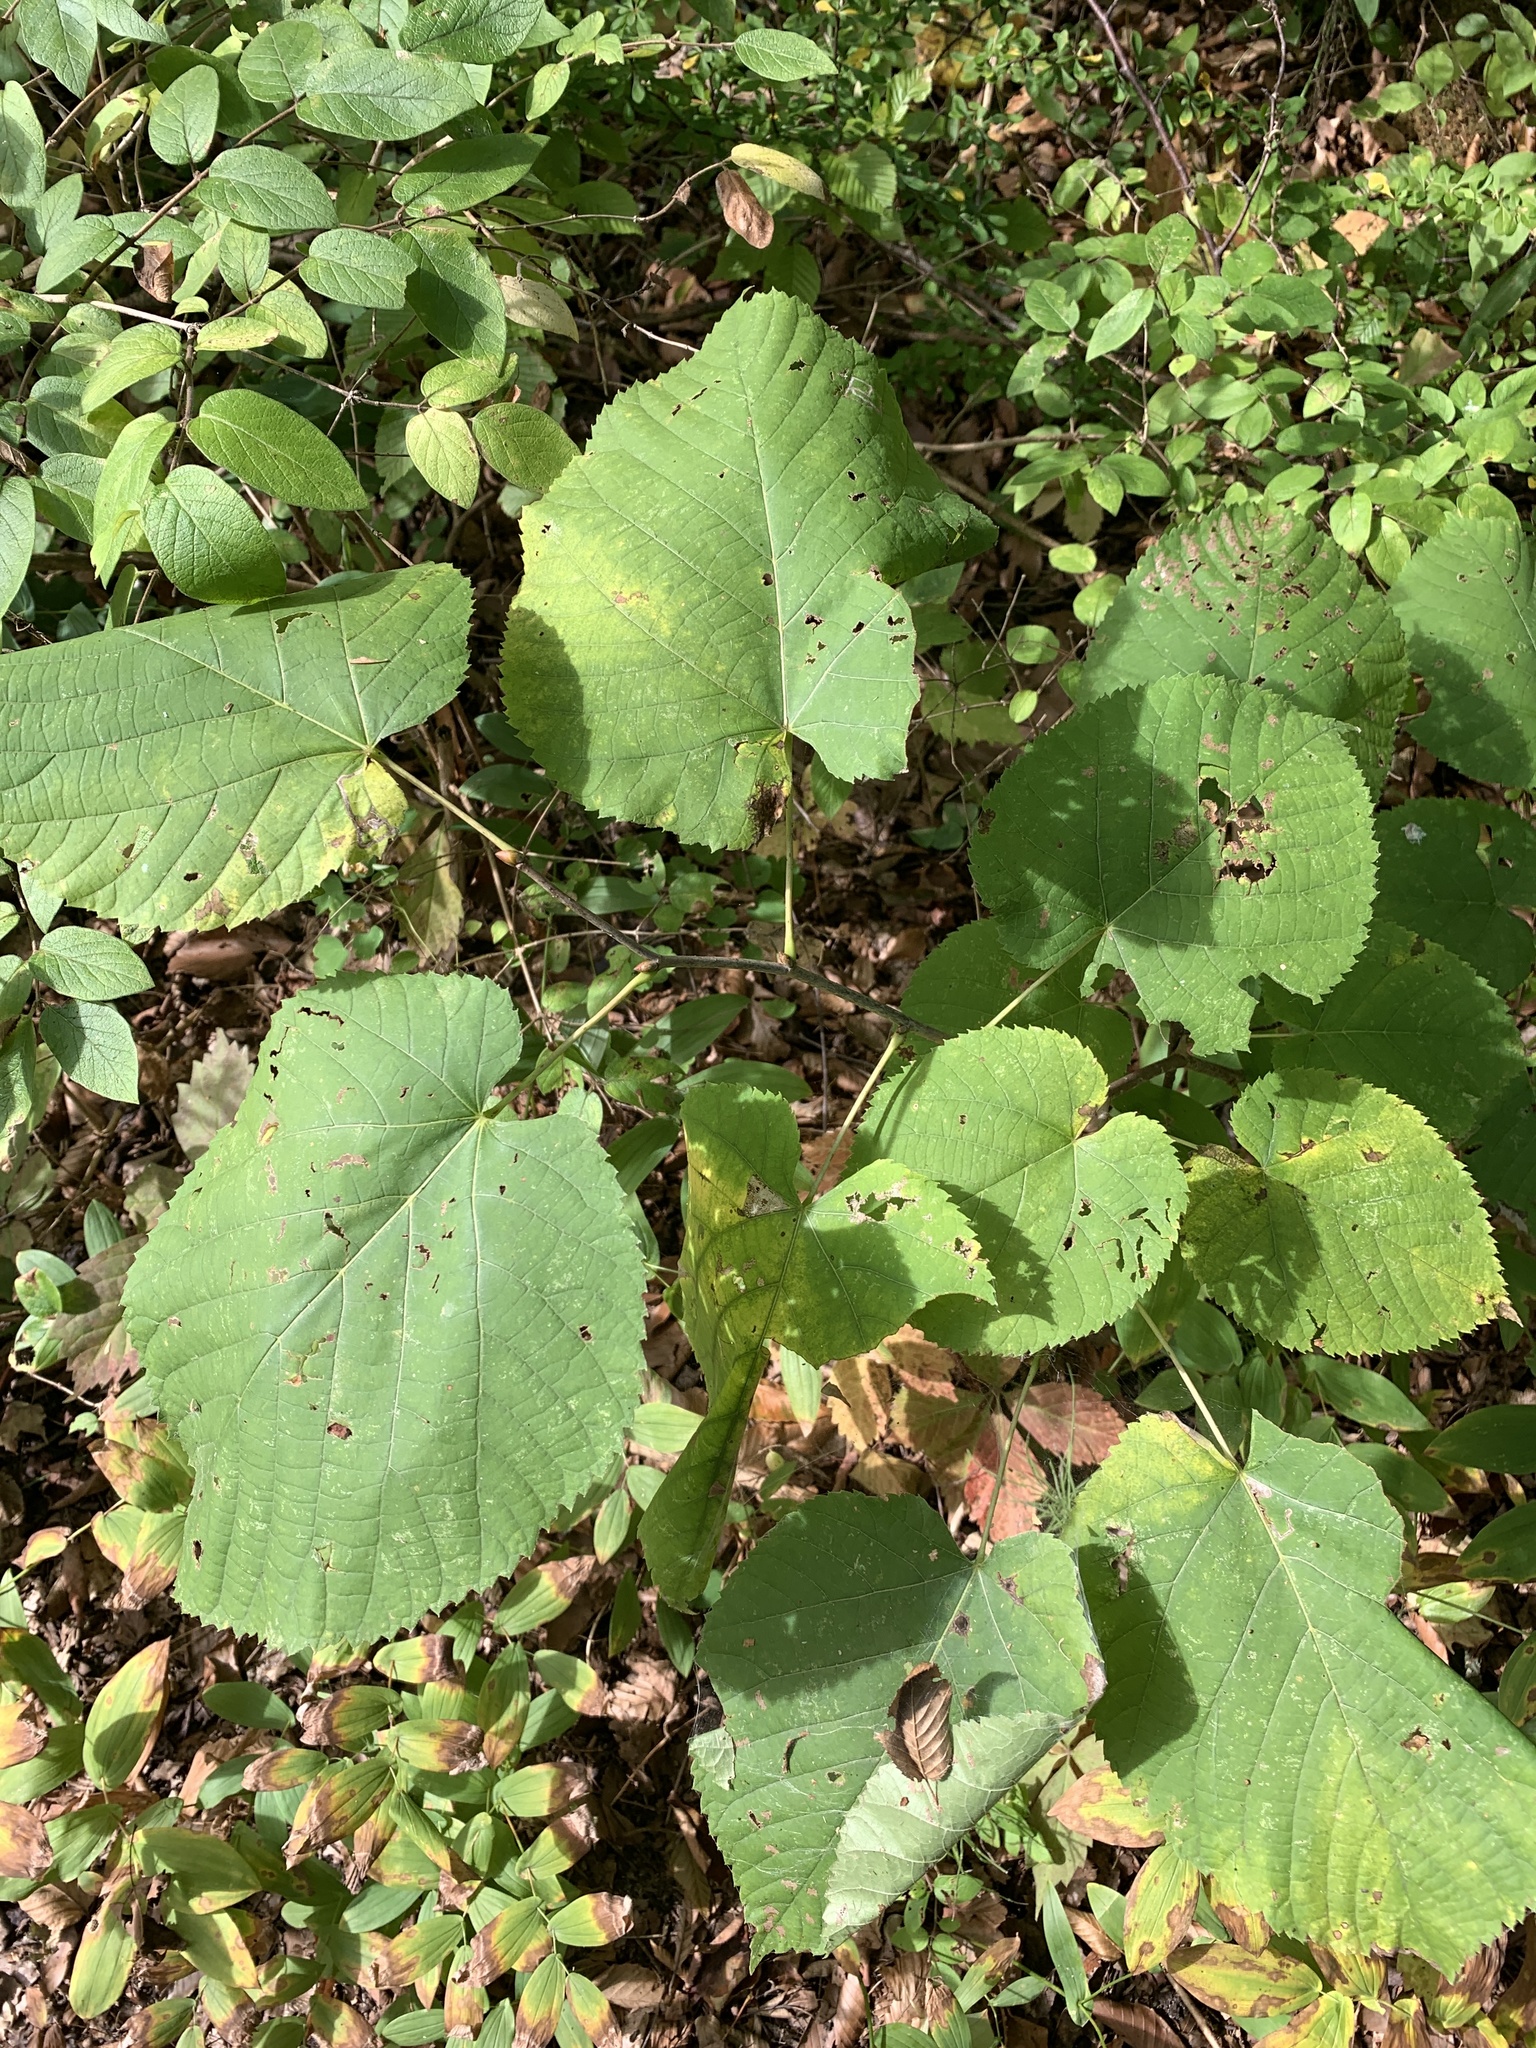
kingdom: Plantae
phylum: Tracheophyta
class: Magnoliopsida
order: Malvales
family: Malvaceae
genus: Tilia
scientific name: Tilia americana
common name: Basswood
